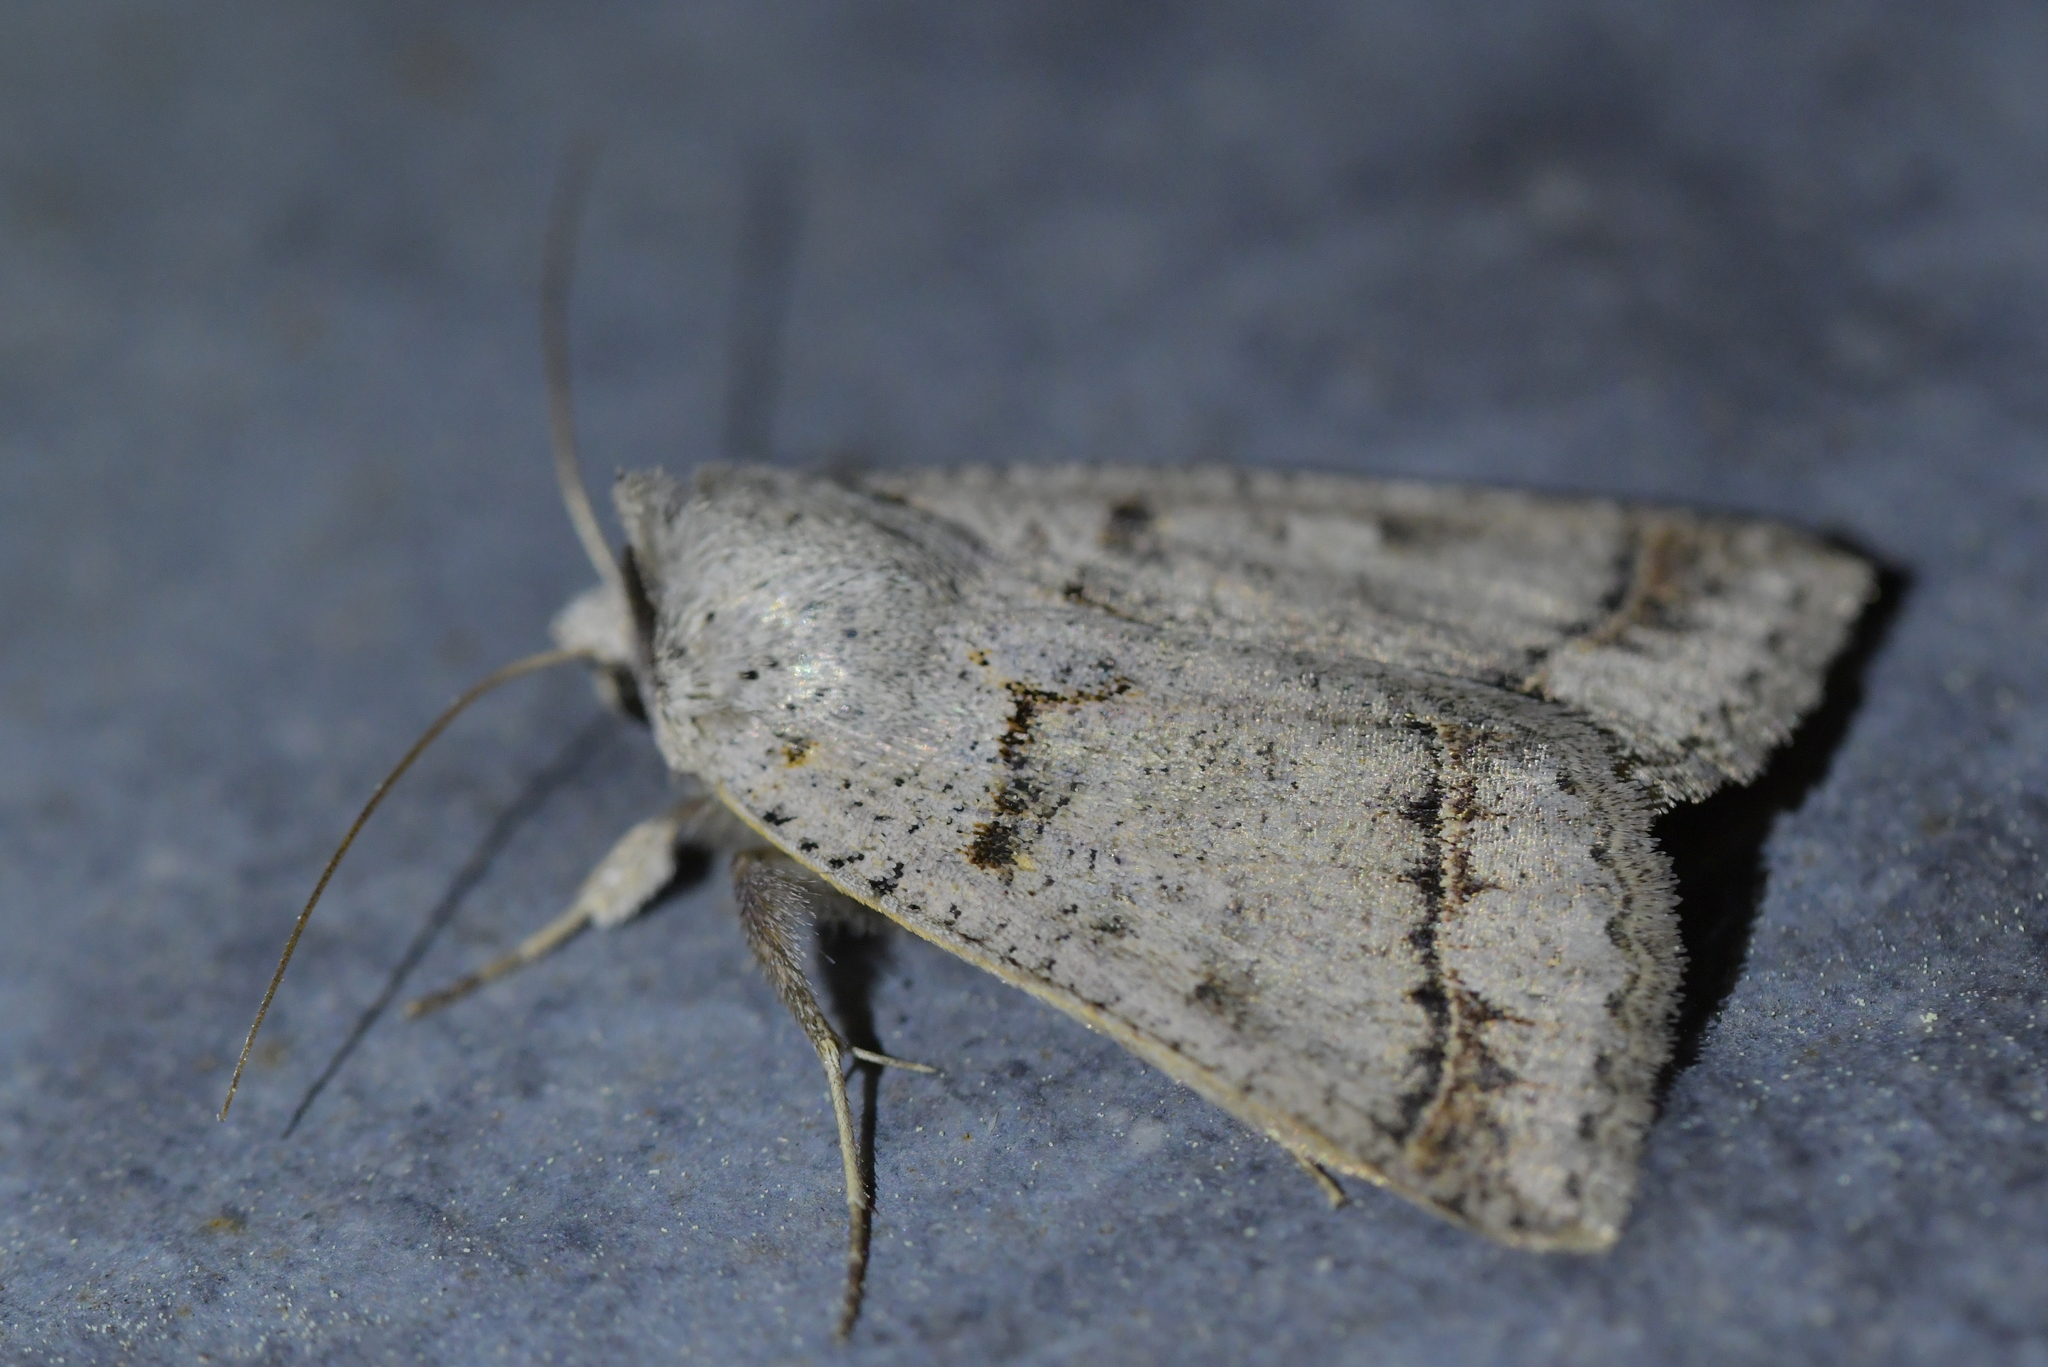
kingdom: Animalia
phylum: Arthropoda
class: Insecta
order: Lepidoptera
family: Erebidae
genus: Pantydia
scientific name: Pantydia sparsa
